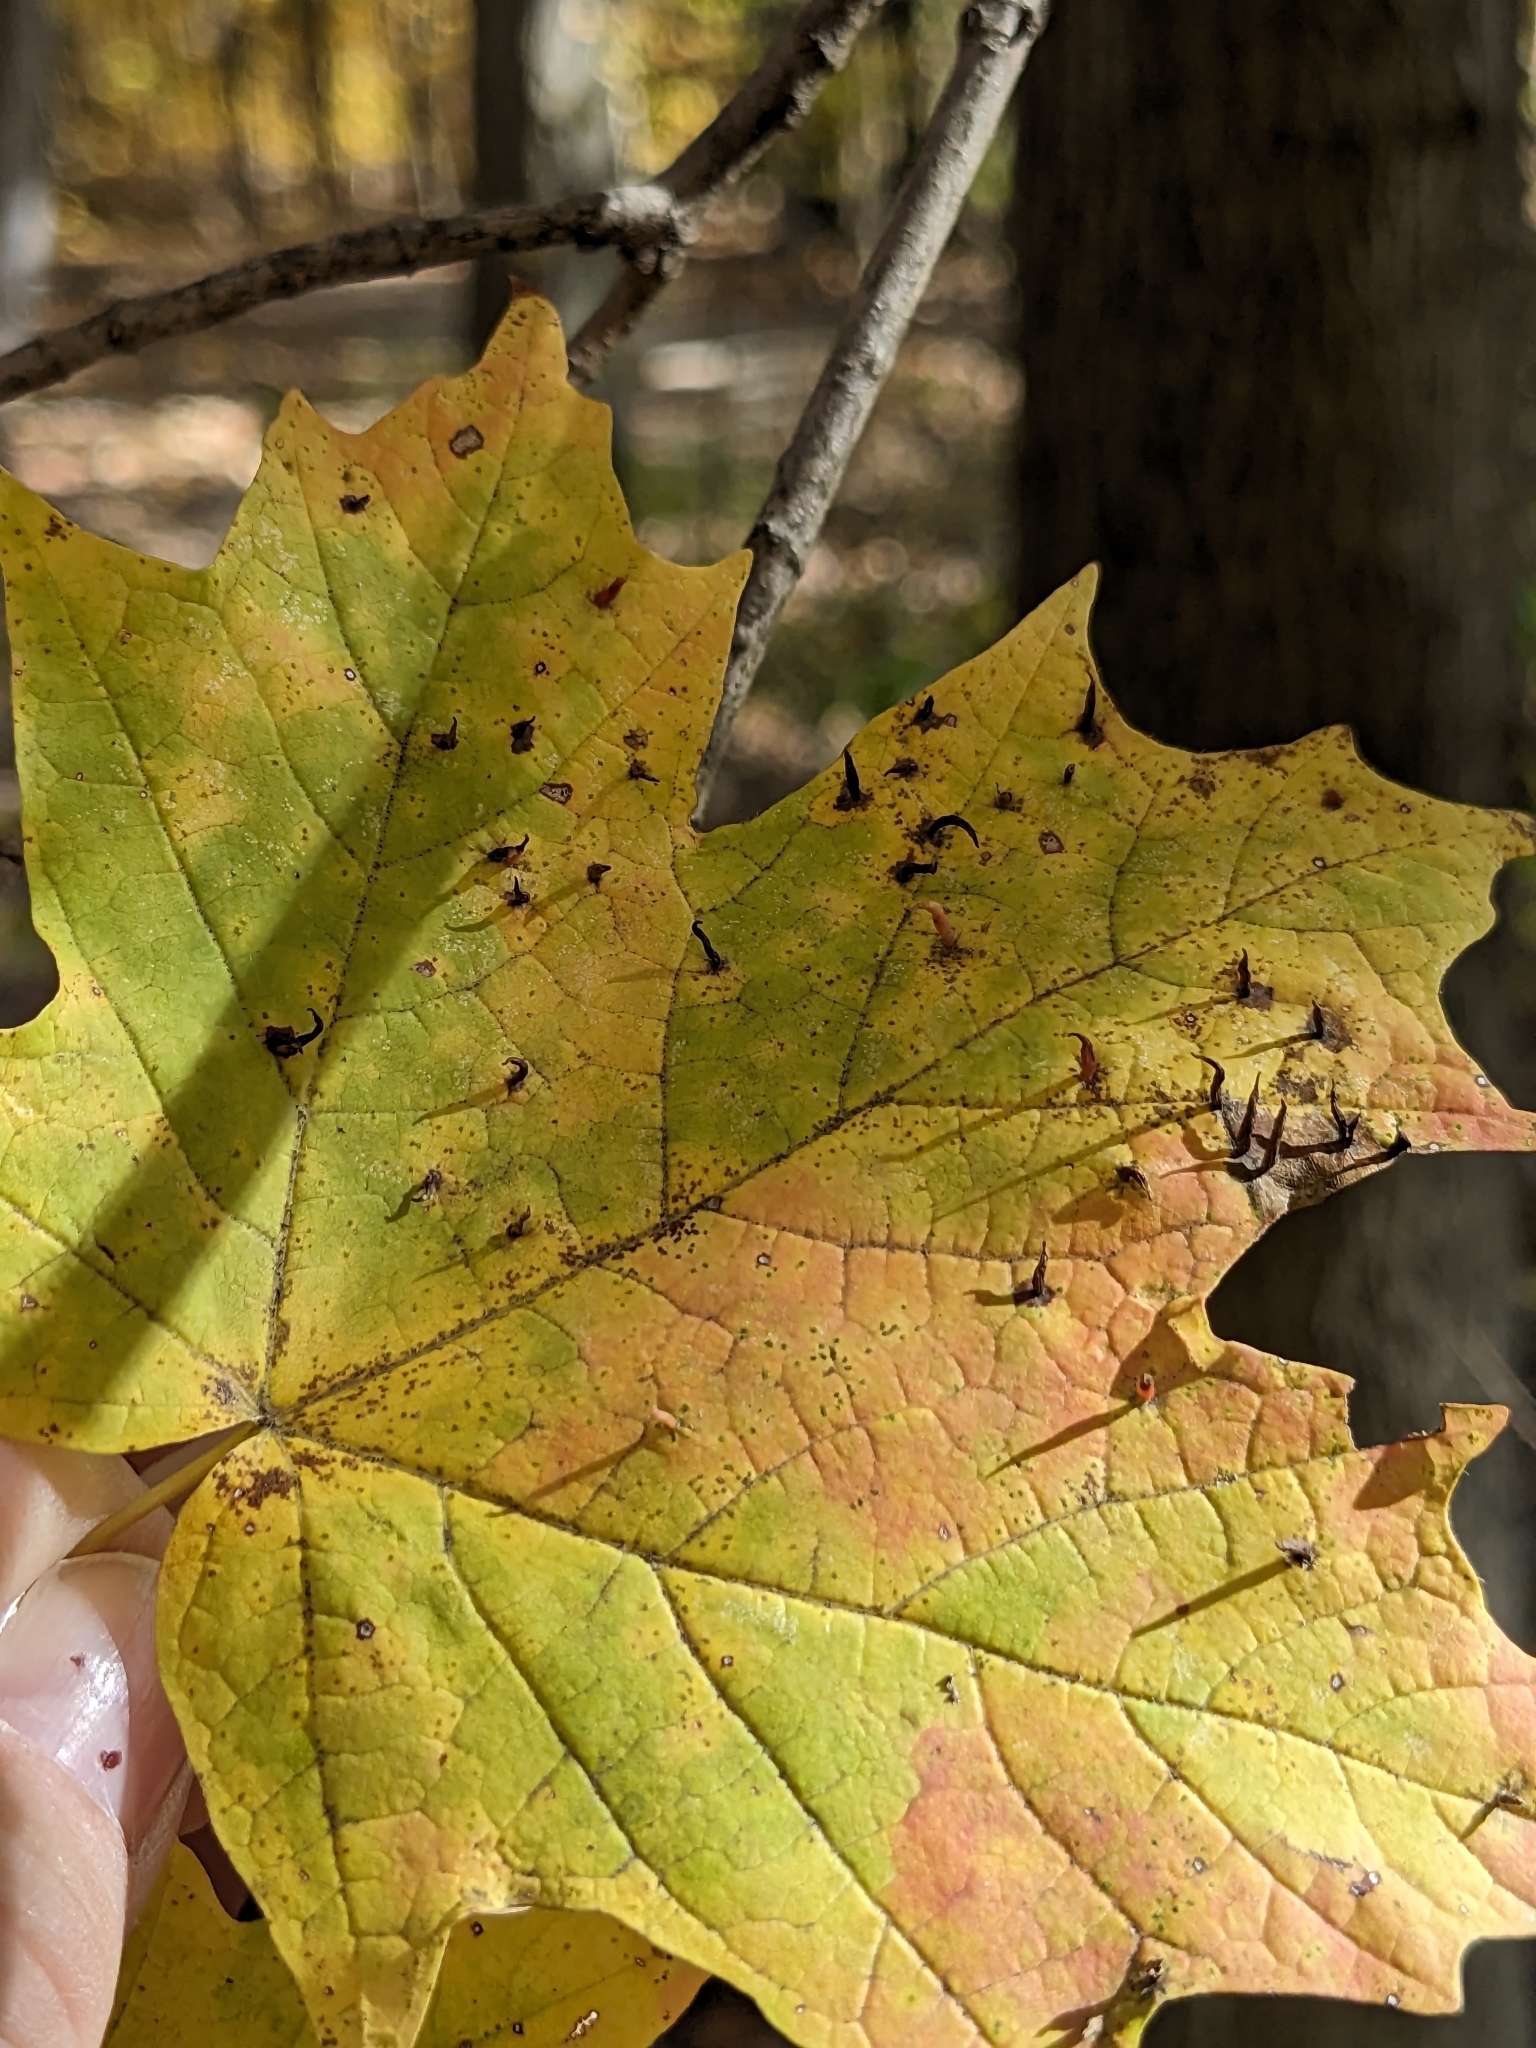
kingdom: Animalia
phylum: Arthropoda
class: Arachnida
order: Trombidiformes
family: Eriophyidae
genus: Vasates
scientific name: Vasates aceriscrumena
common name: Maple spindle gall mite
